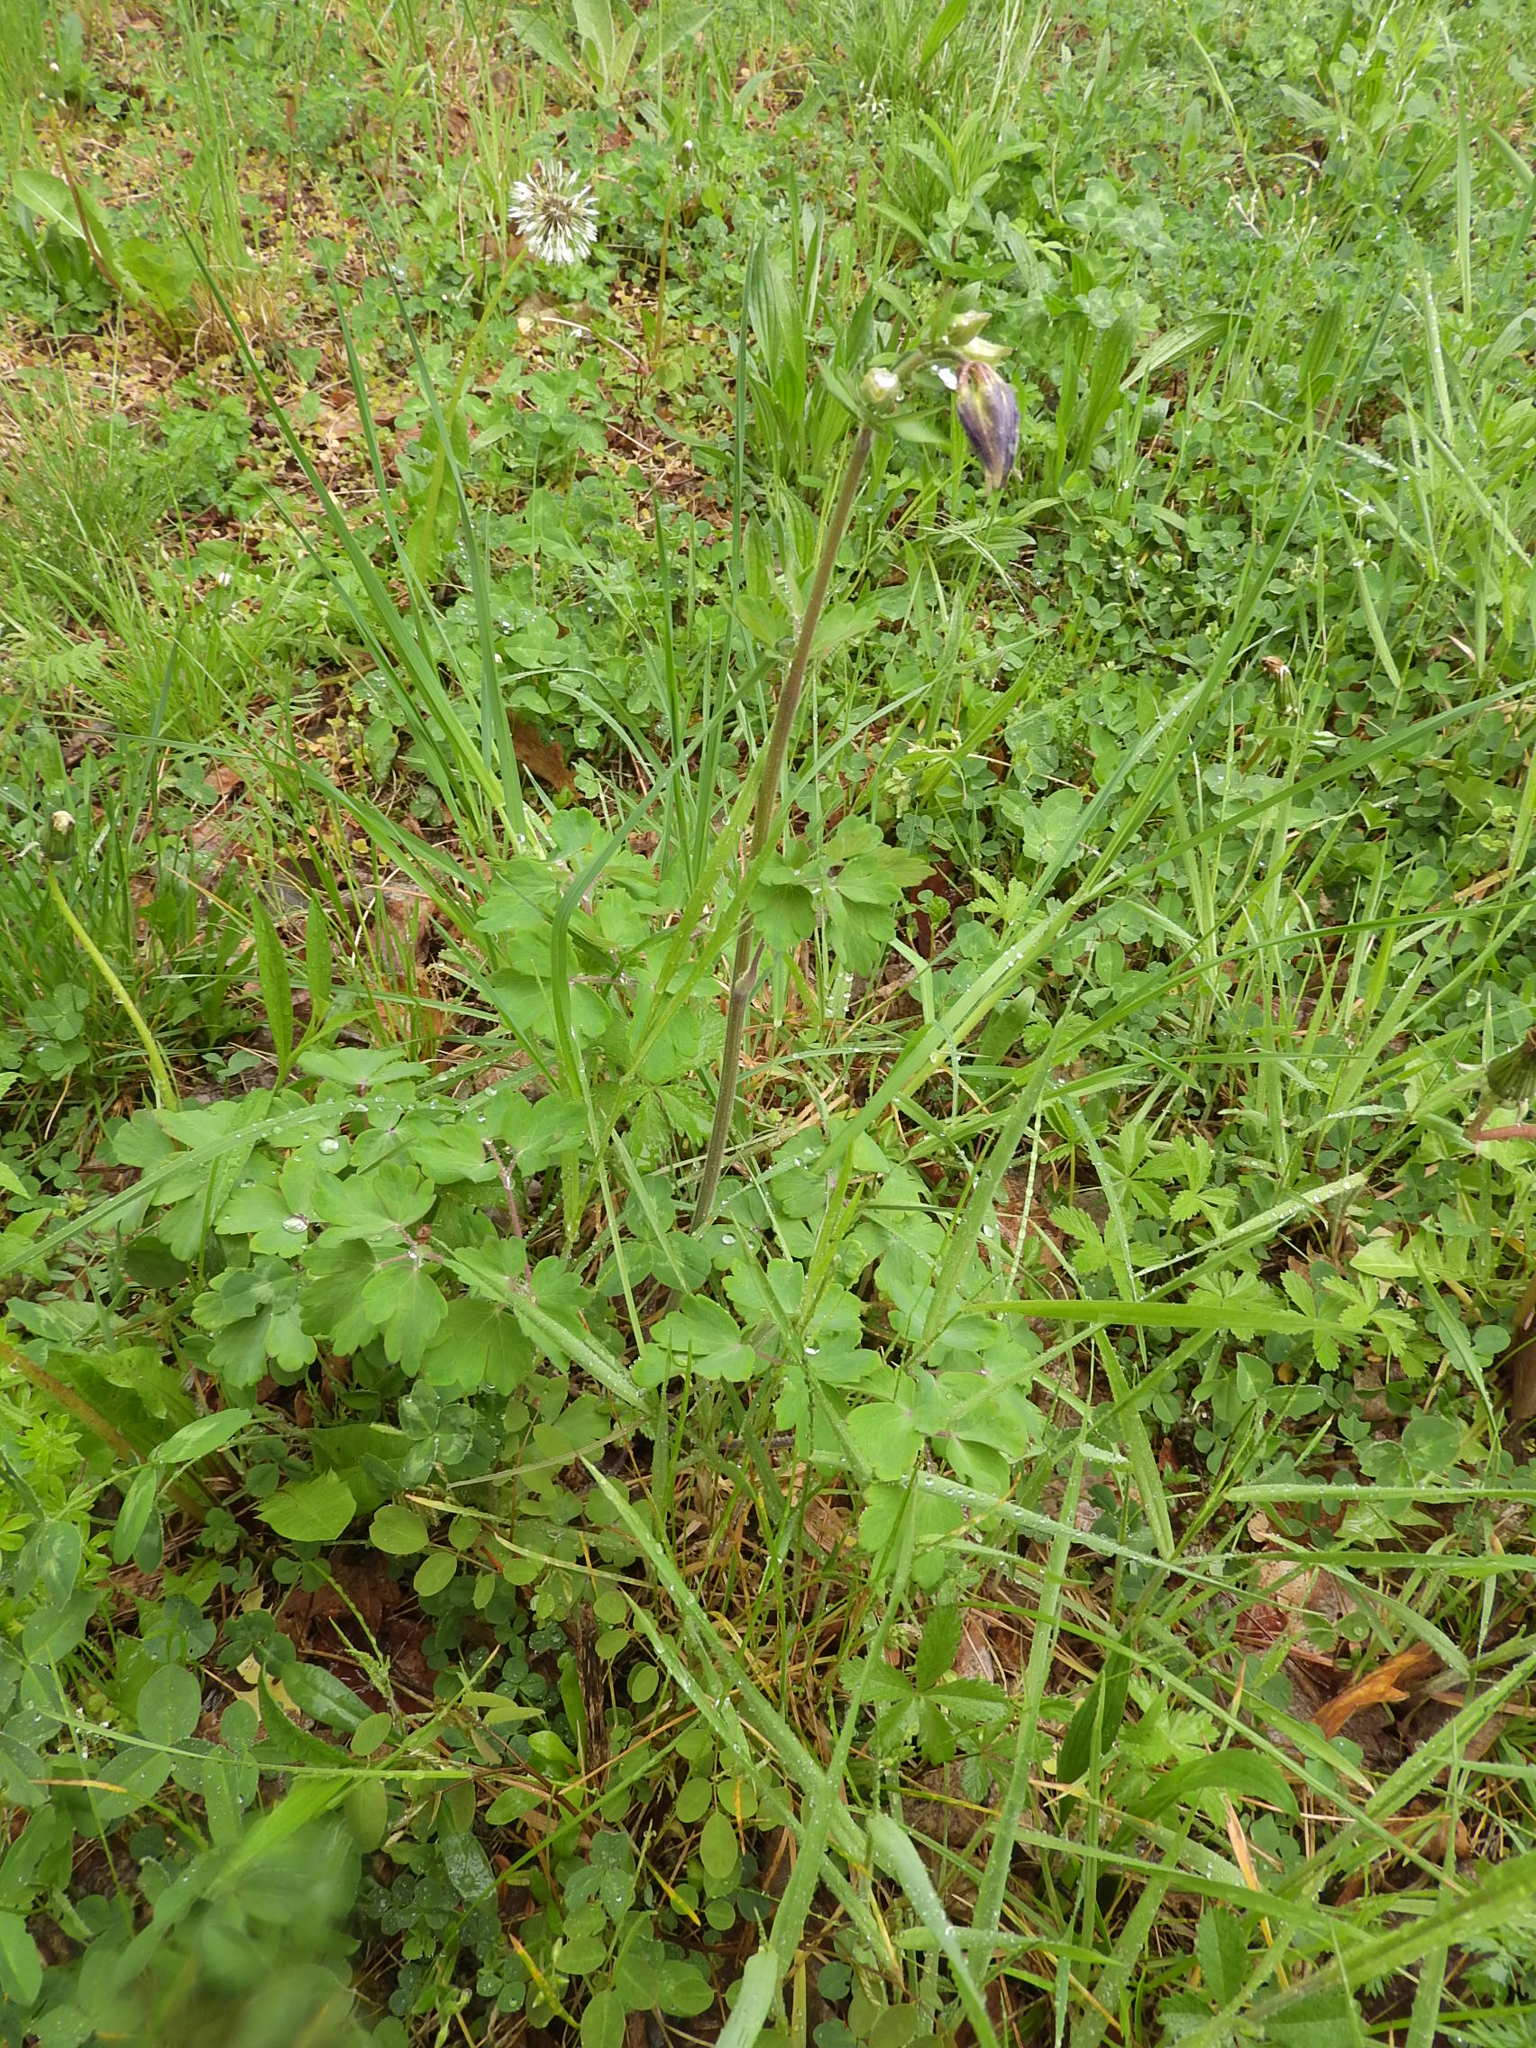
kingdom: Plantae
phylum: Tracheophyta
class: Magnoliopsida
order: Ranunculales
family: Ranunculaceae
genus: Aquilegia
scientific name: Aquilegia vulgaris
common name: Columbine
